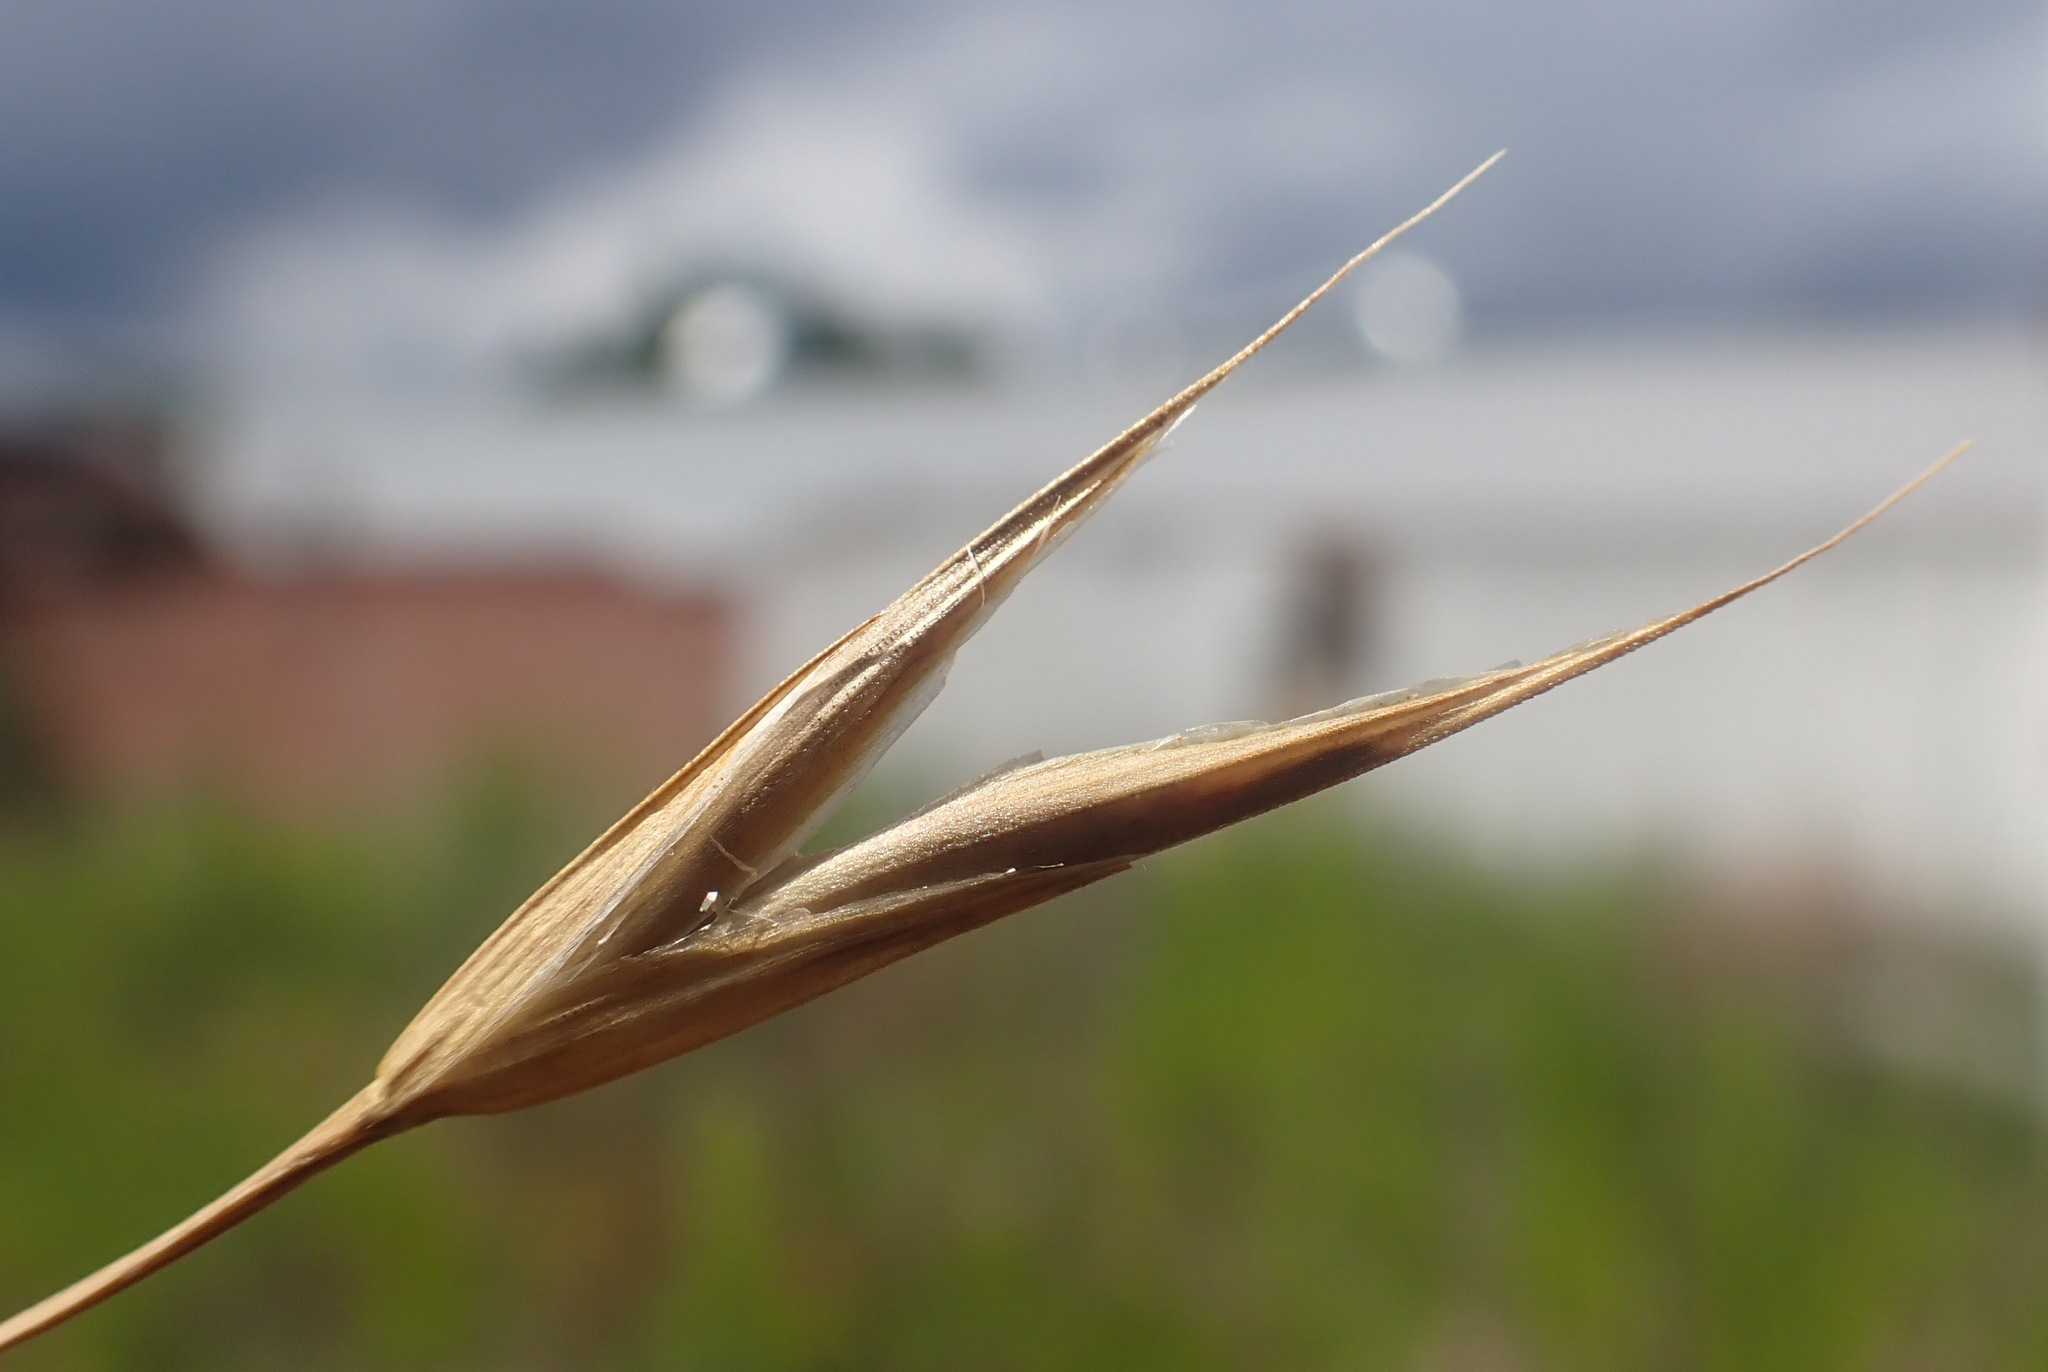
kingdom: Plantae
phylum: Tracheophyta
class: Liliopsida
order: Poales
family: Poaceae
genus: Bromus
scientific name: Bromus sitchensis
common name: Sitka brome
